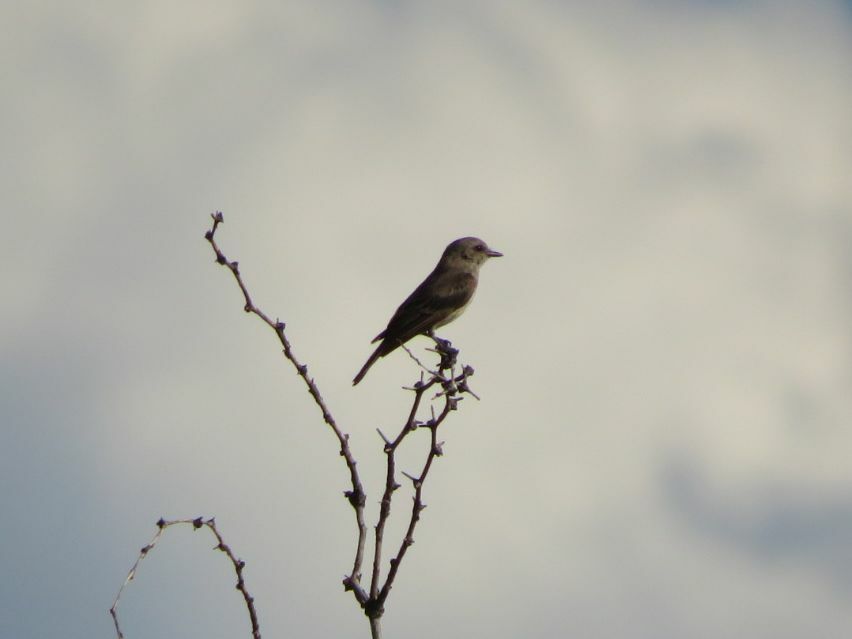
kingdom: Animalia
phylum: Chordata
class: Aves
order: Passeriformes
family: Tyrannidae
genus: Pyrocephalus
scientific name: Pyrocephalus rubinus
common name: Vermilion flycatcher
